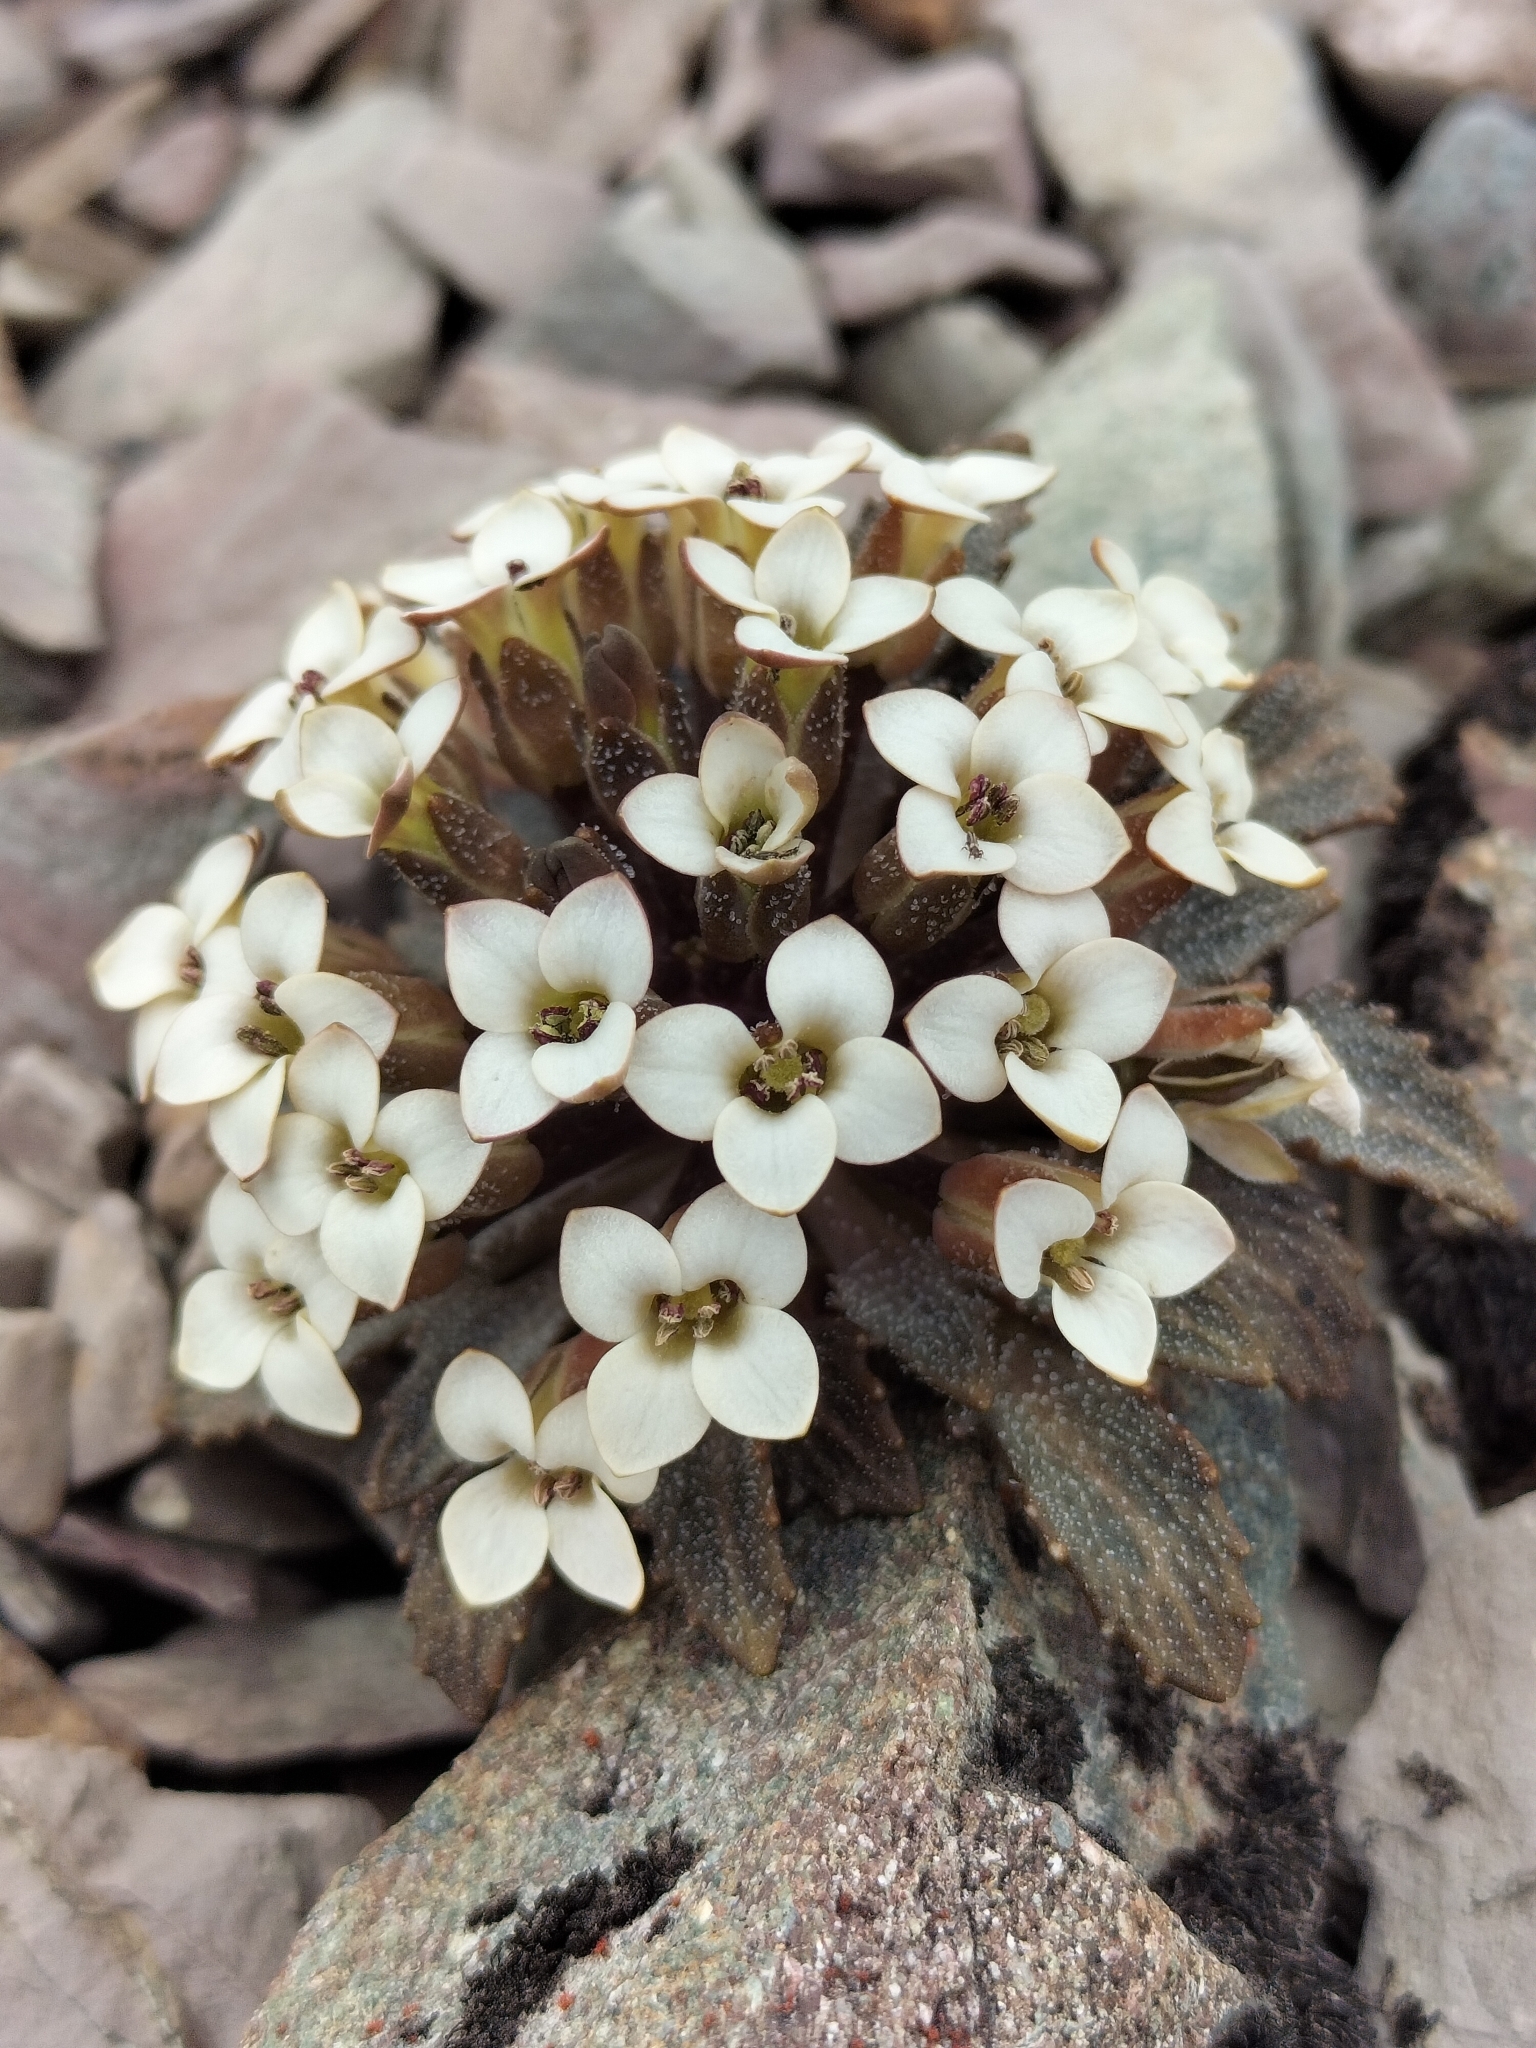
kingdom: Plantae
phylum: Tracheophyta
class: Magnoliopsida
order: Brassicales
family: Brassicaceae
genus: Notothlaspi
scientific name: Notothlaspi rosulatum
